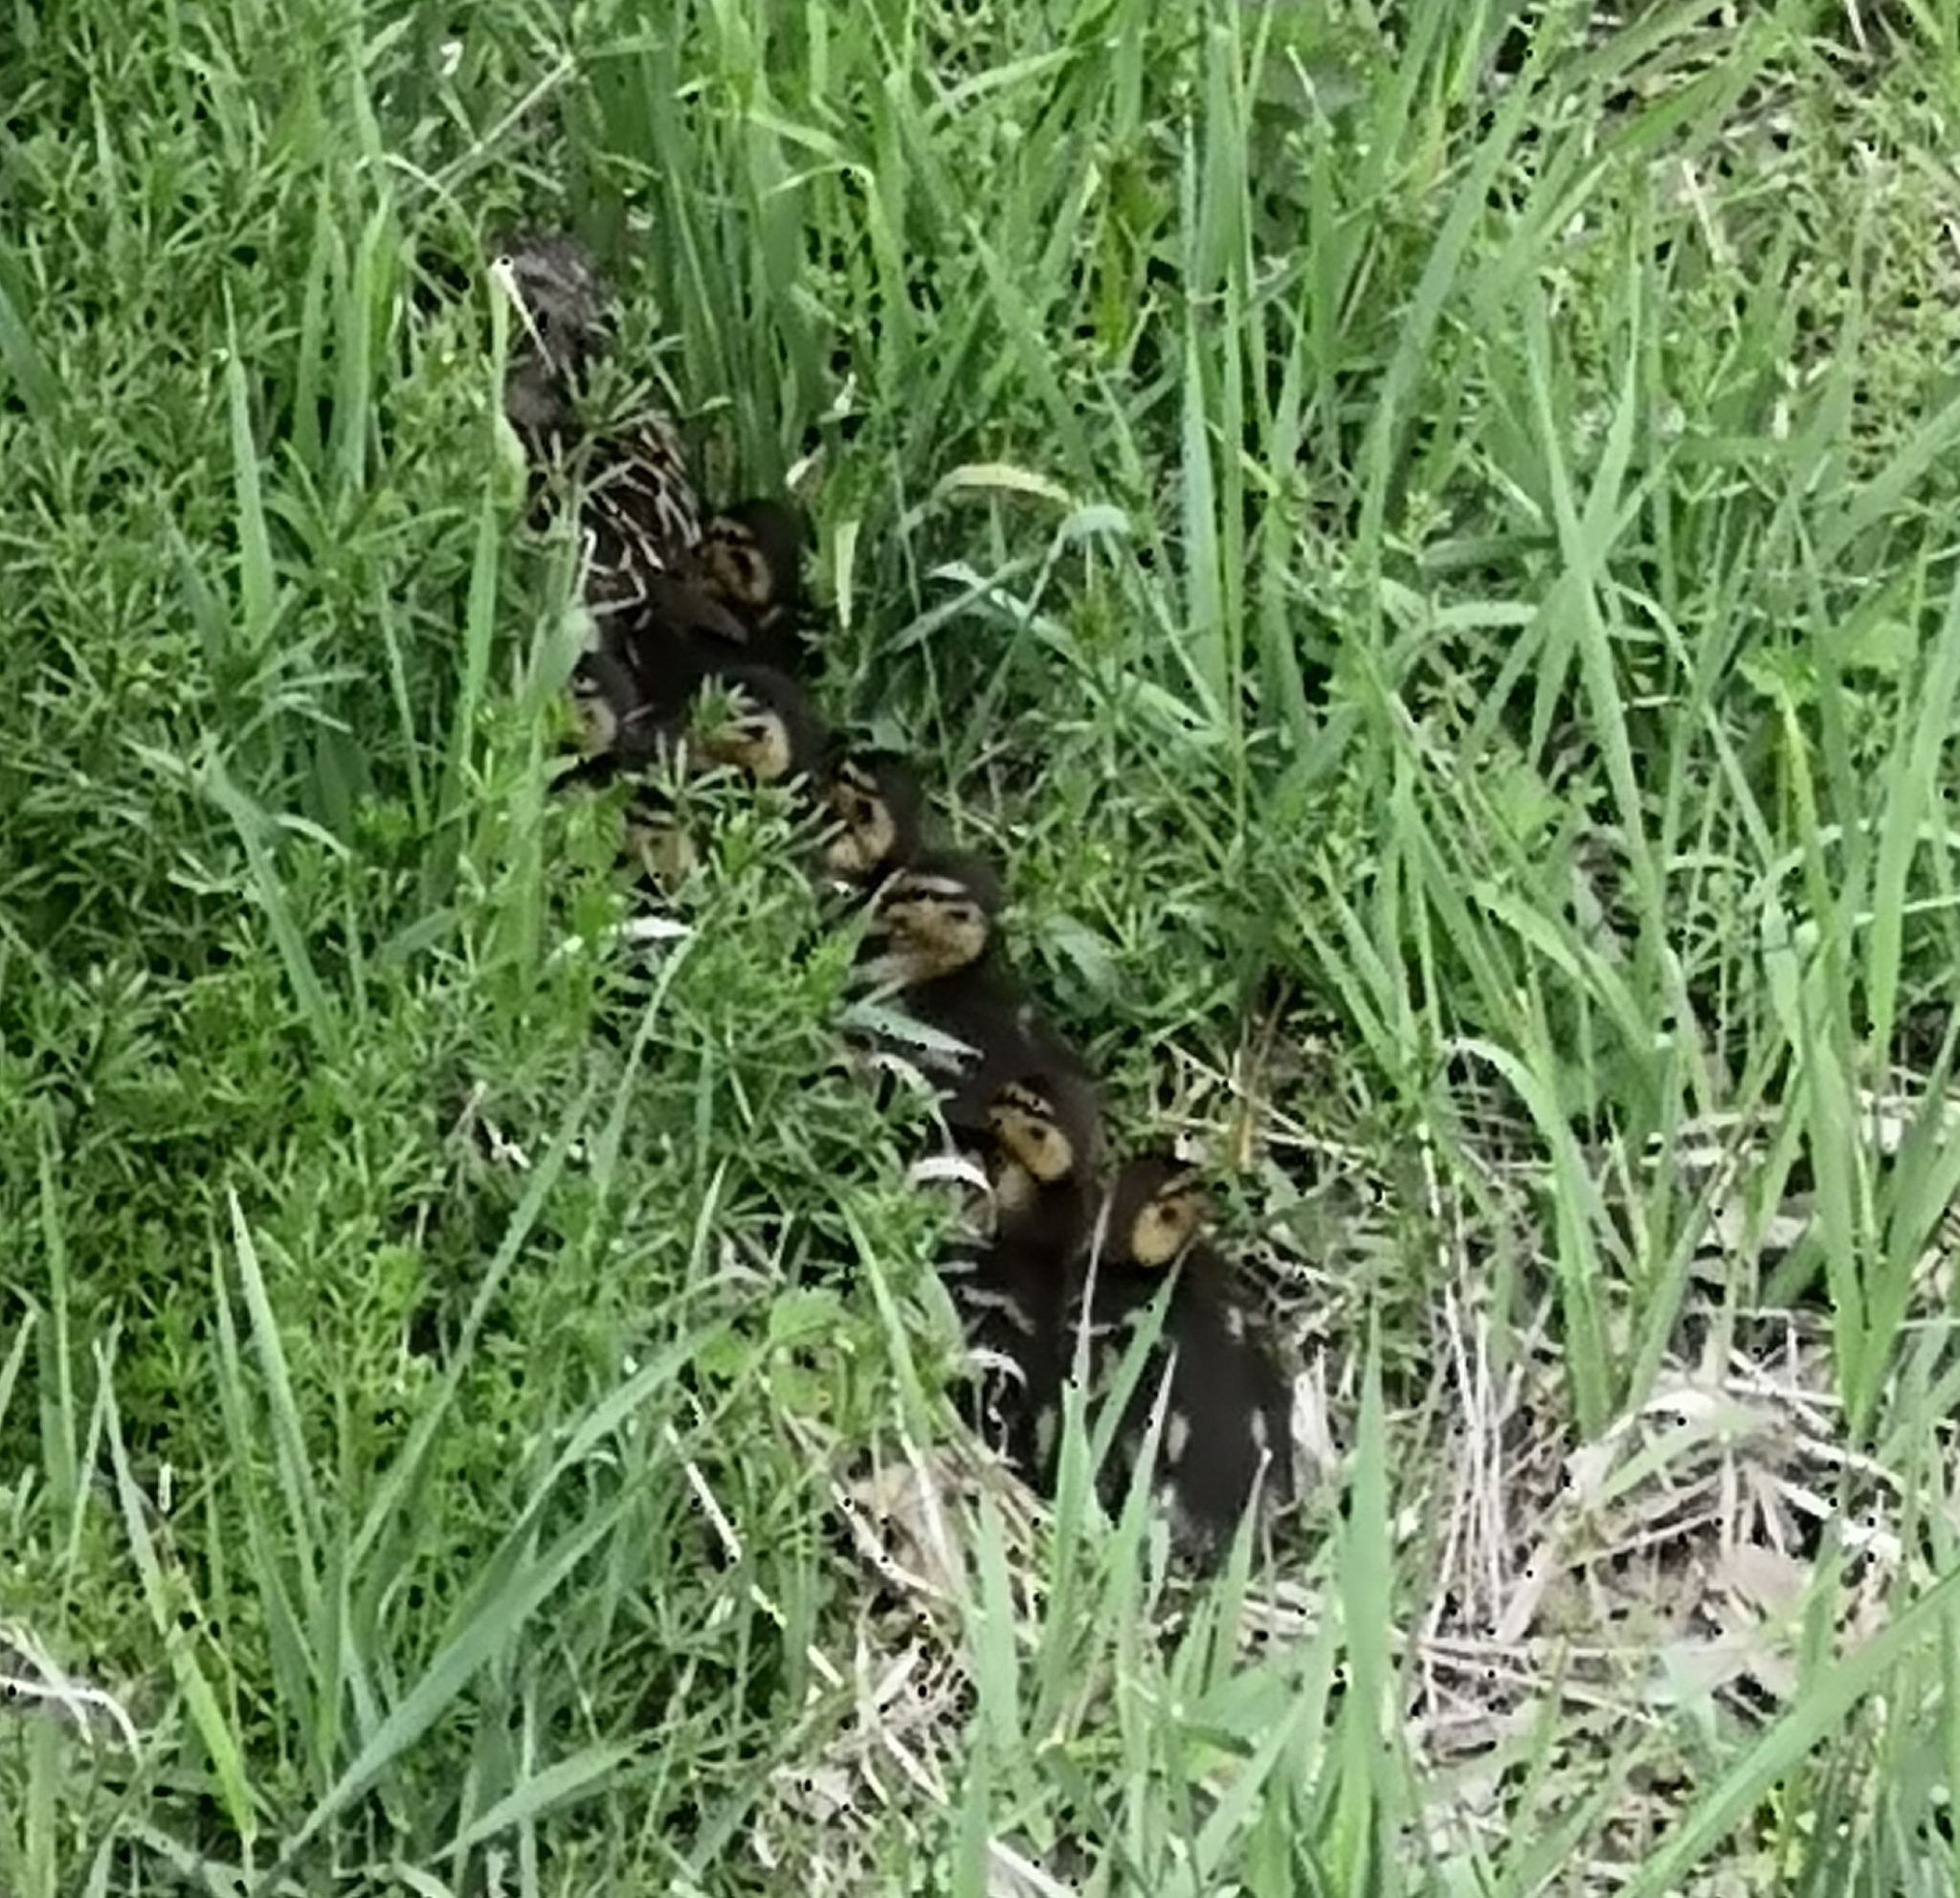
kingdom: Animalia
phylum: Chordata
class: Aves
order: Anseriformes
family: Anatidae
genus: Anas
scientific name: Anas platyrhynchos
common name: Mallard
